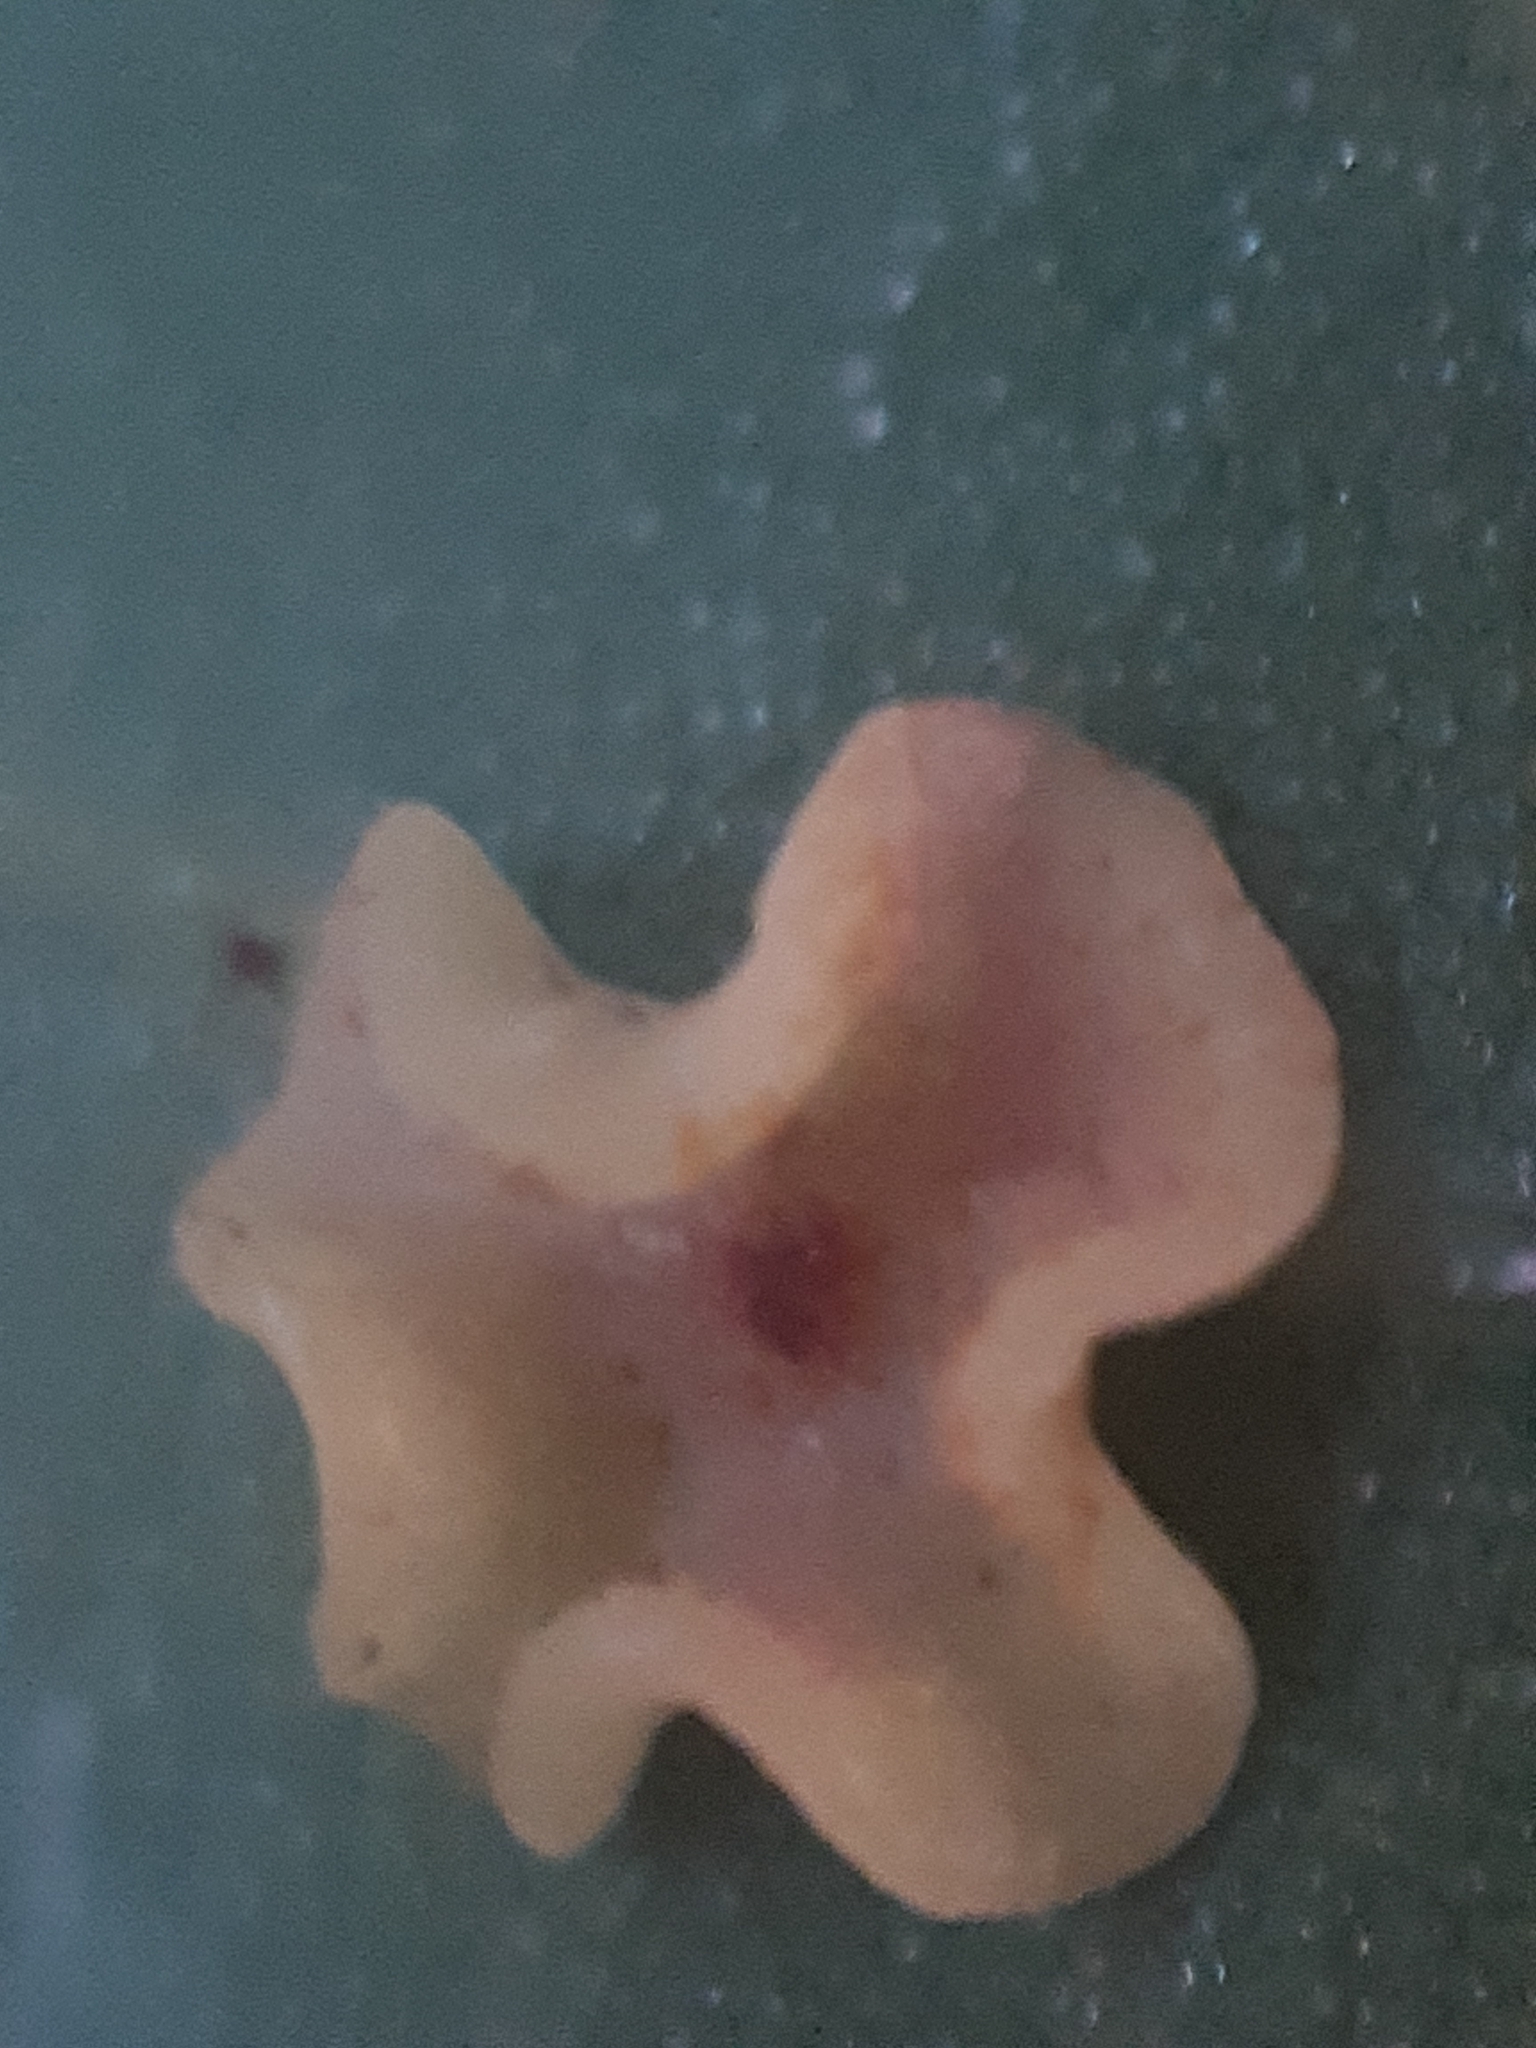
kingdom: Animalia
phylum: Arthropoda
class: Insecta
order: Hymenoptera
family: Cynipidae
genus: Neuroterus
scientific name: Neuroterus albipes
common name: Smooth spangle gall
